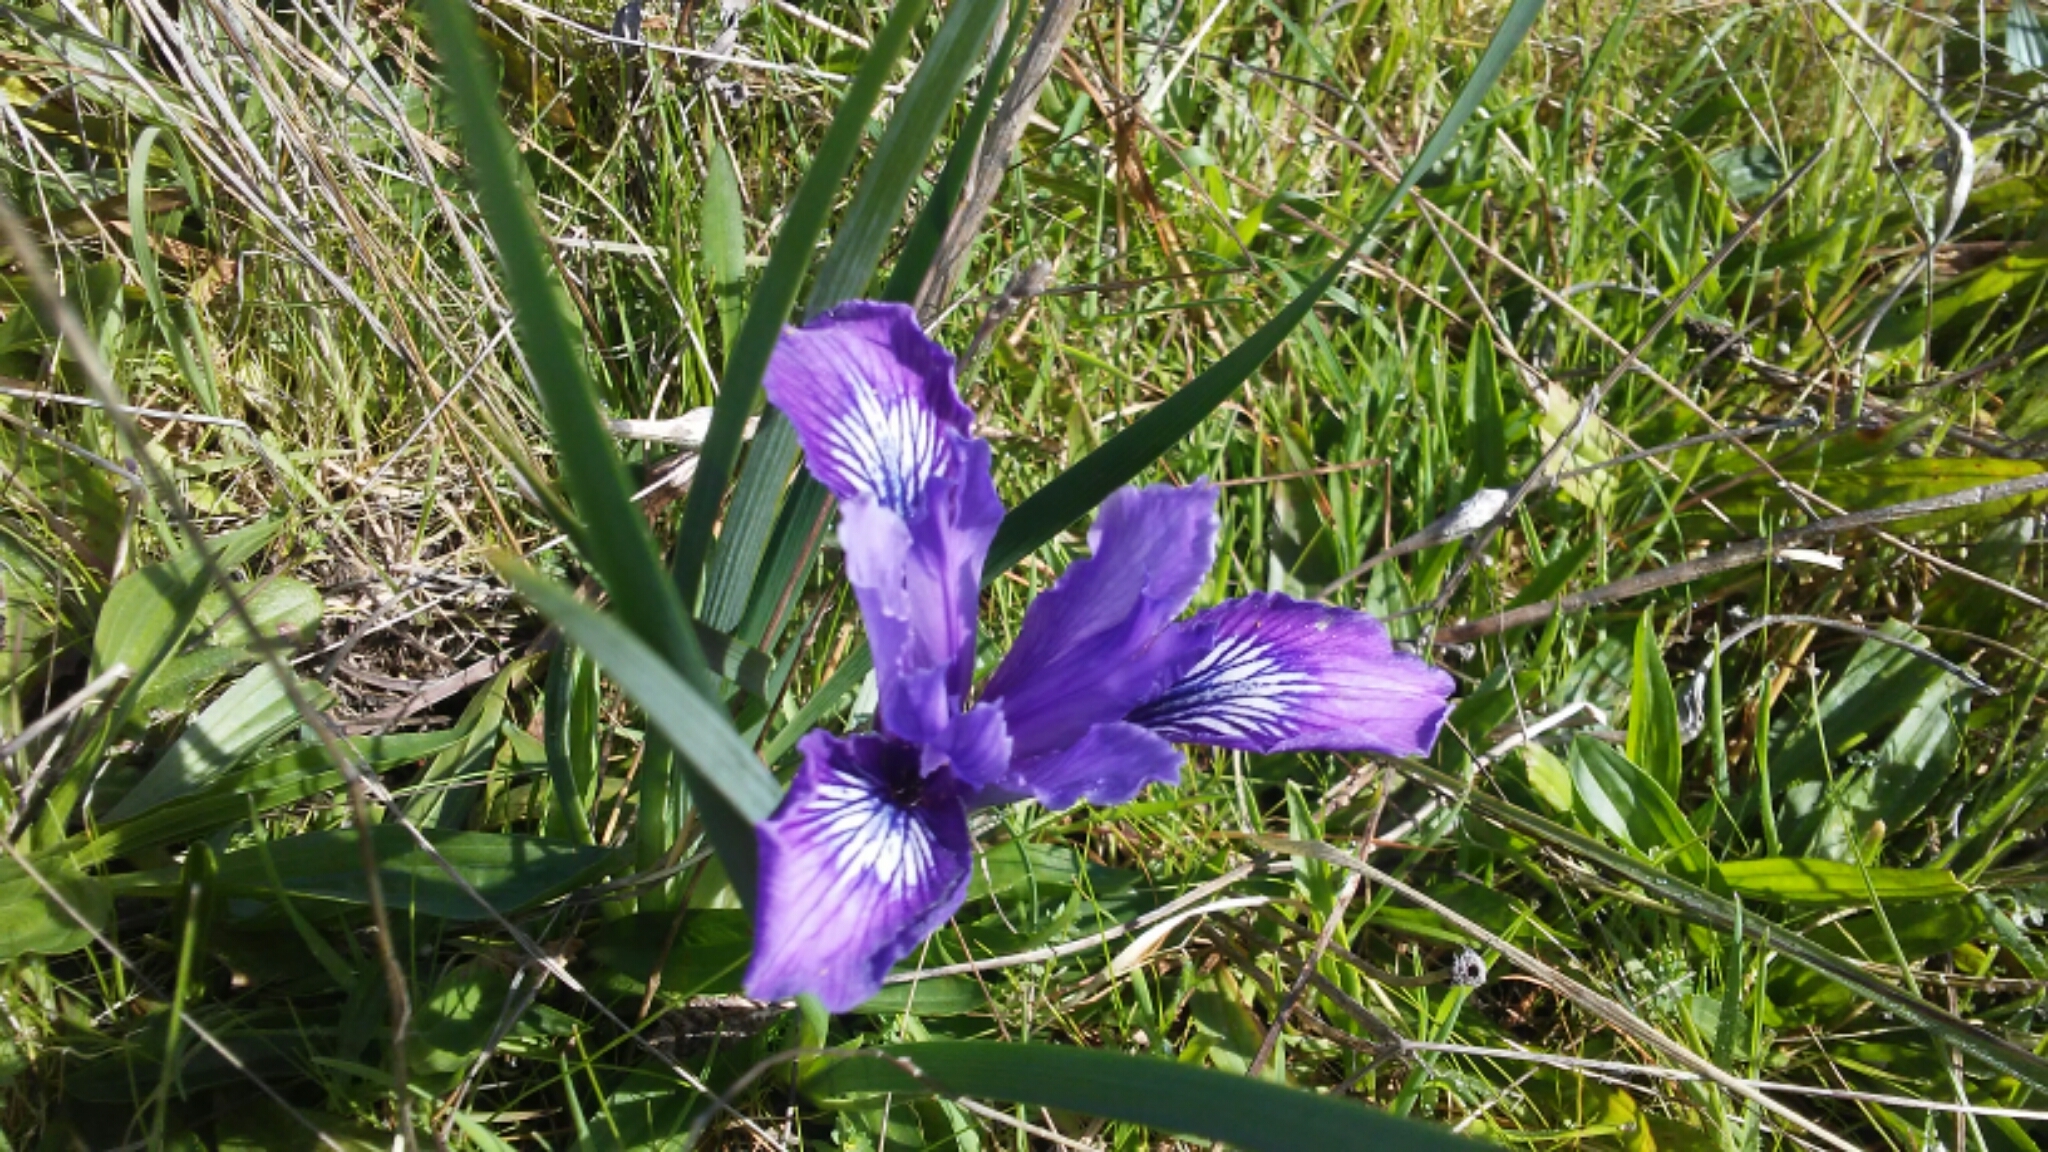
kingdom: Plantae
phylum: Tracheophyta
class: Liliopsida
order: Asparagales
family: Iridaceae
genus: Iris
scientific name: Iris douglasiana
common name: Marin iris
